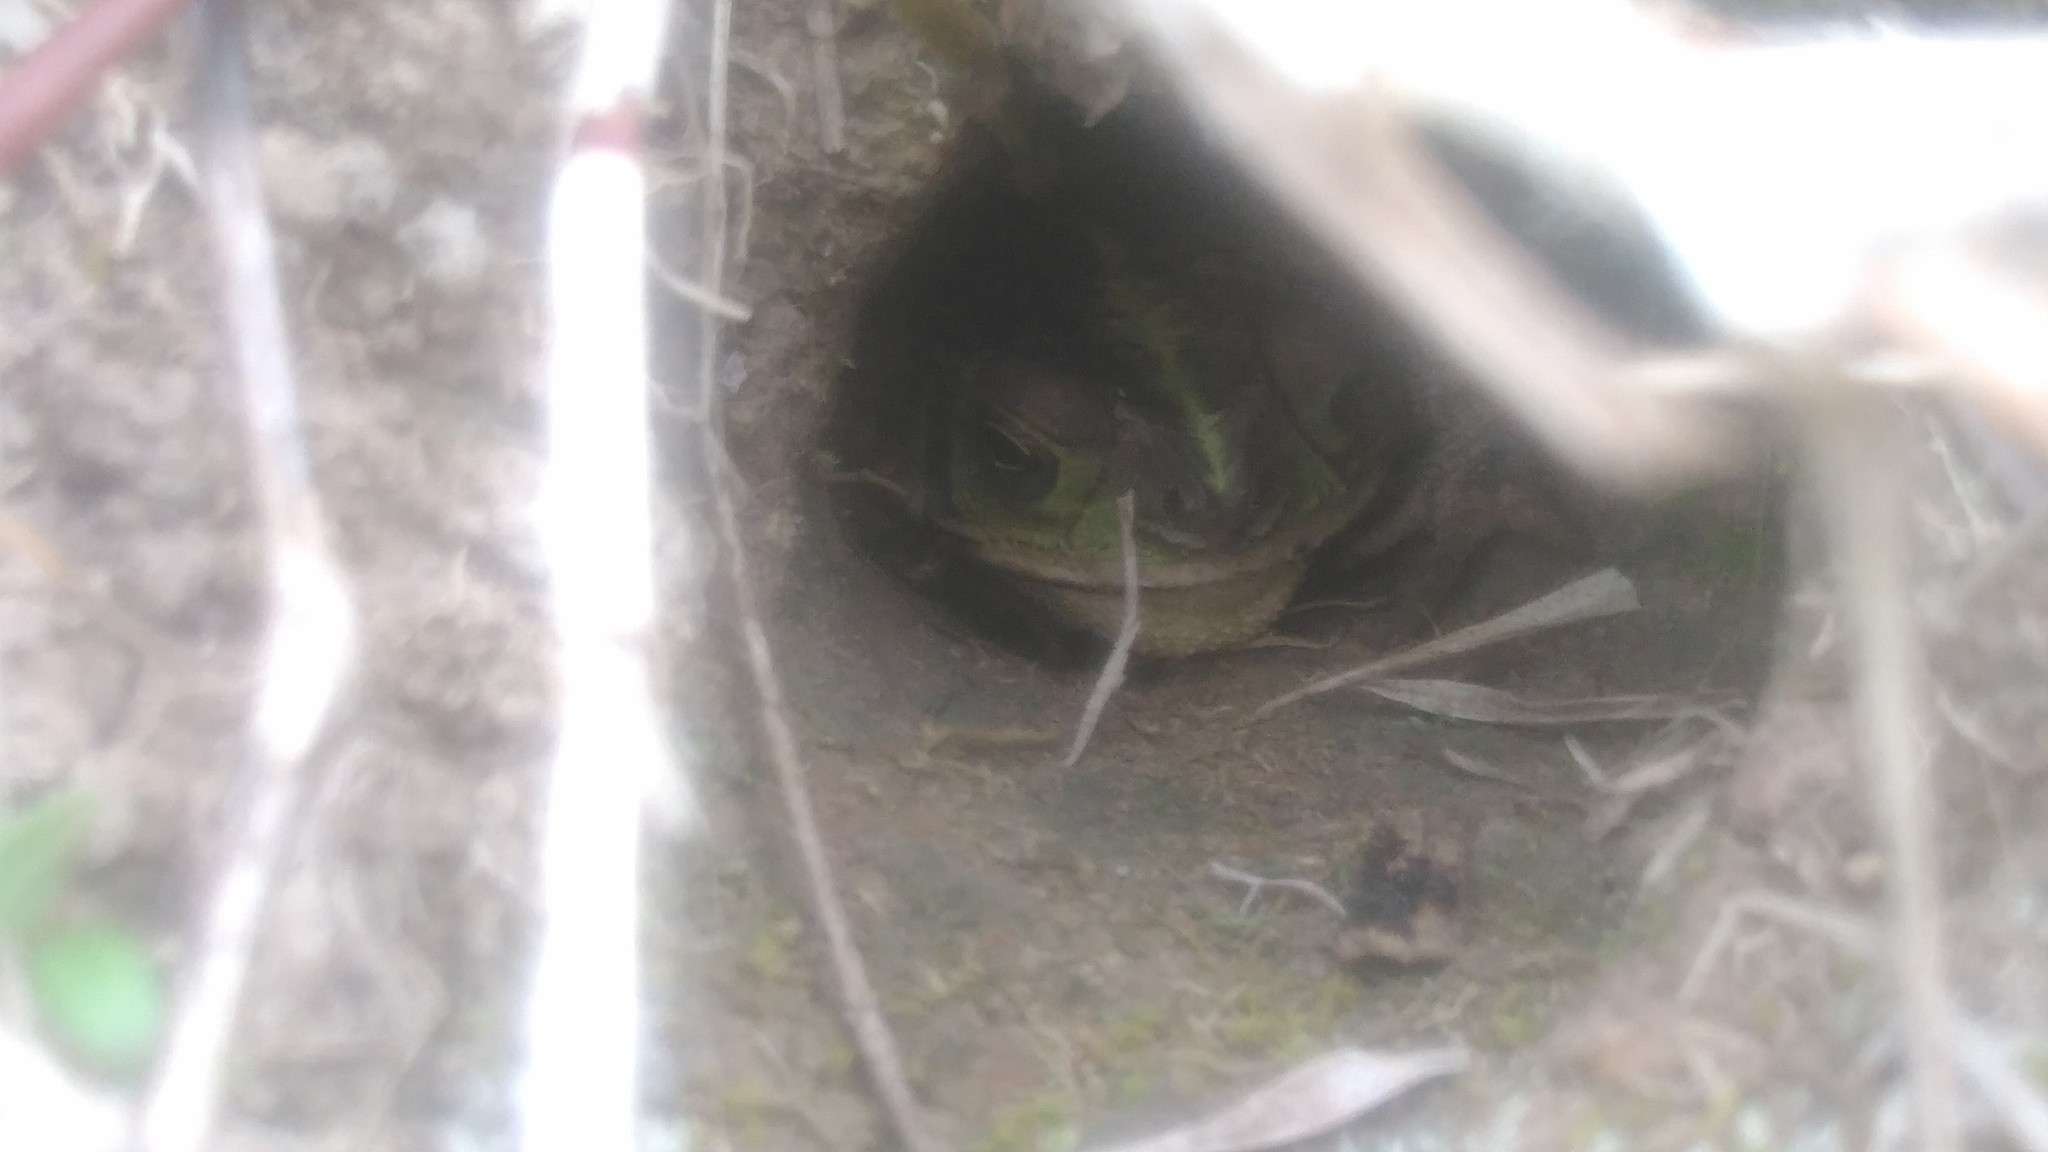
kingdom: Animalia
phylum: Chordata
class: Amphibia
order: Anura
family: Bufonidae
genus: Rhinella
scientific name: Rhinella dorbignyi
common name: D´orbigny’s toad
